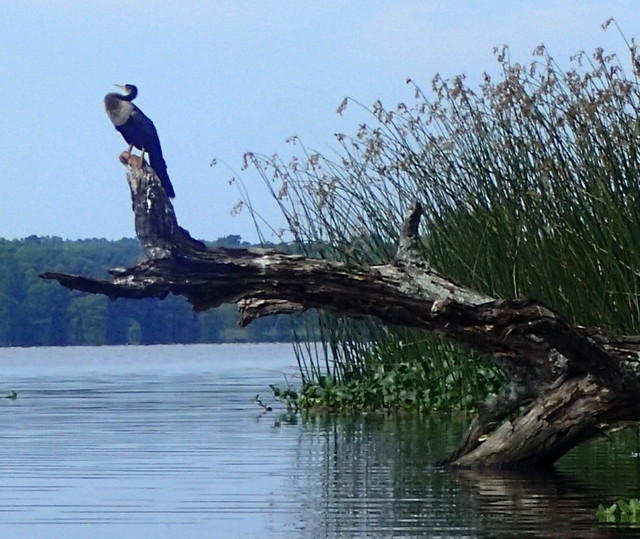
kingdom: Animalia
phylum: Chordata
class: Aves
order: Suliformes
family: Anhingidae
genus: Anhinga
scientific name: Anhinga anhinga
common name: Anhinga
